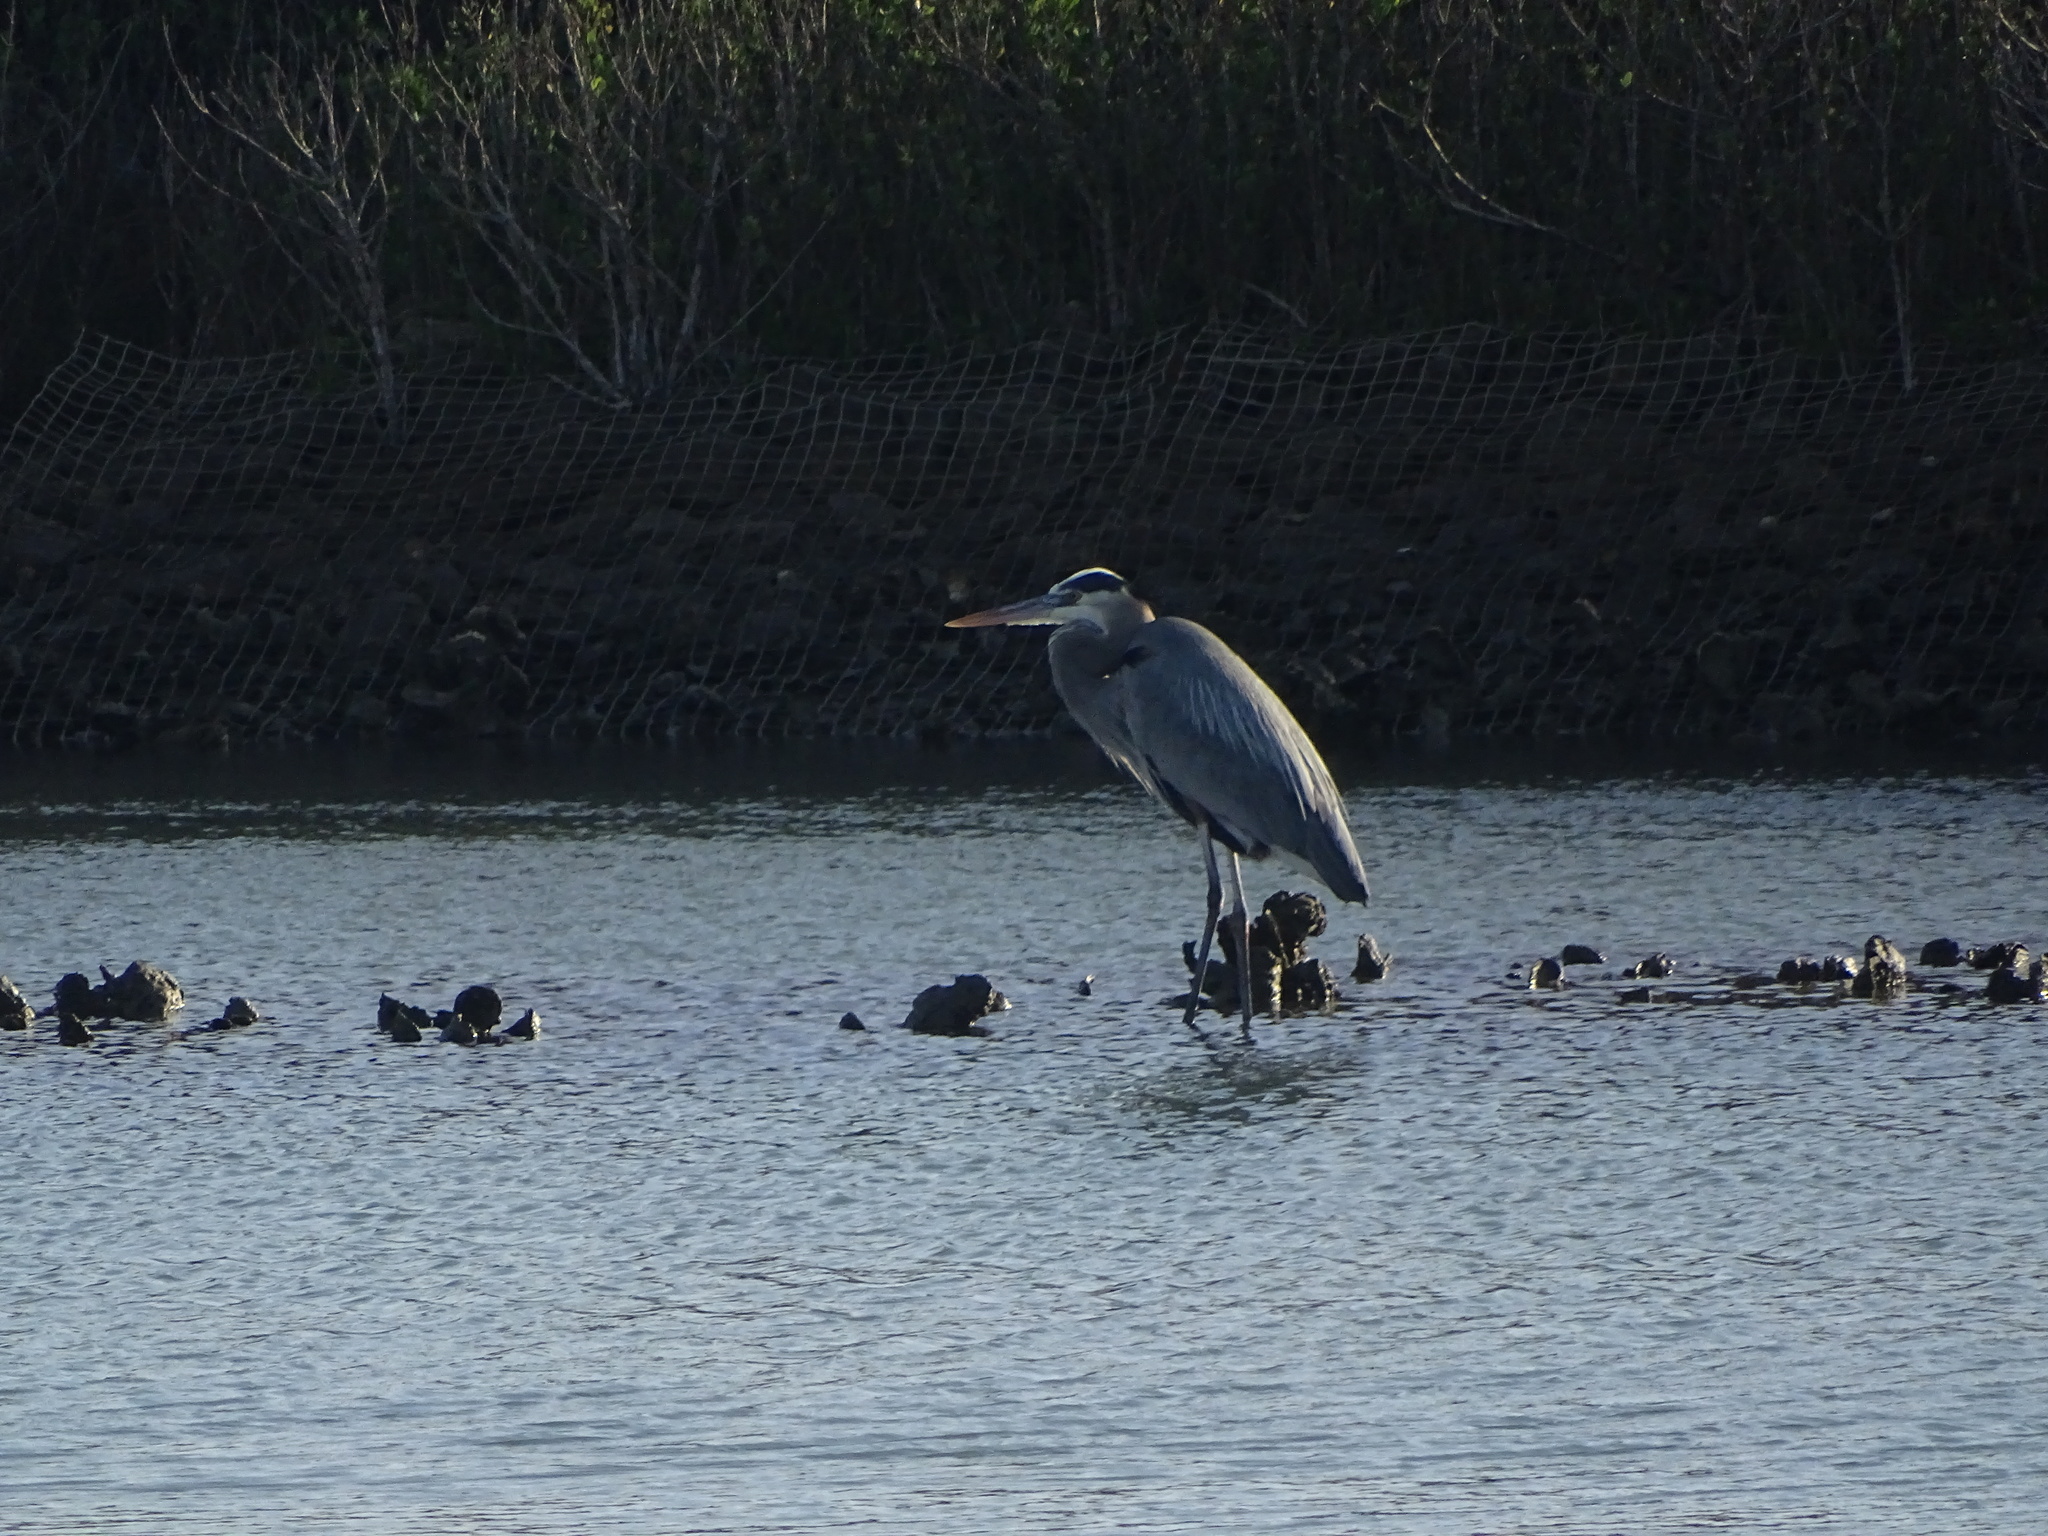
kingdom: Animalia
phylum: Chordata
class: Aves
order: Pelecaniformes
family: Ardeidae
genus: Ardea
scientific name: Ardea herodias
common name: Great blue heron
